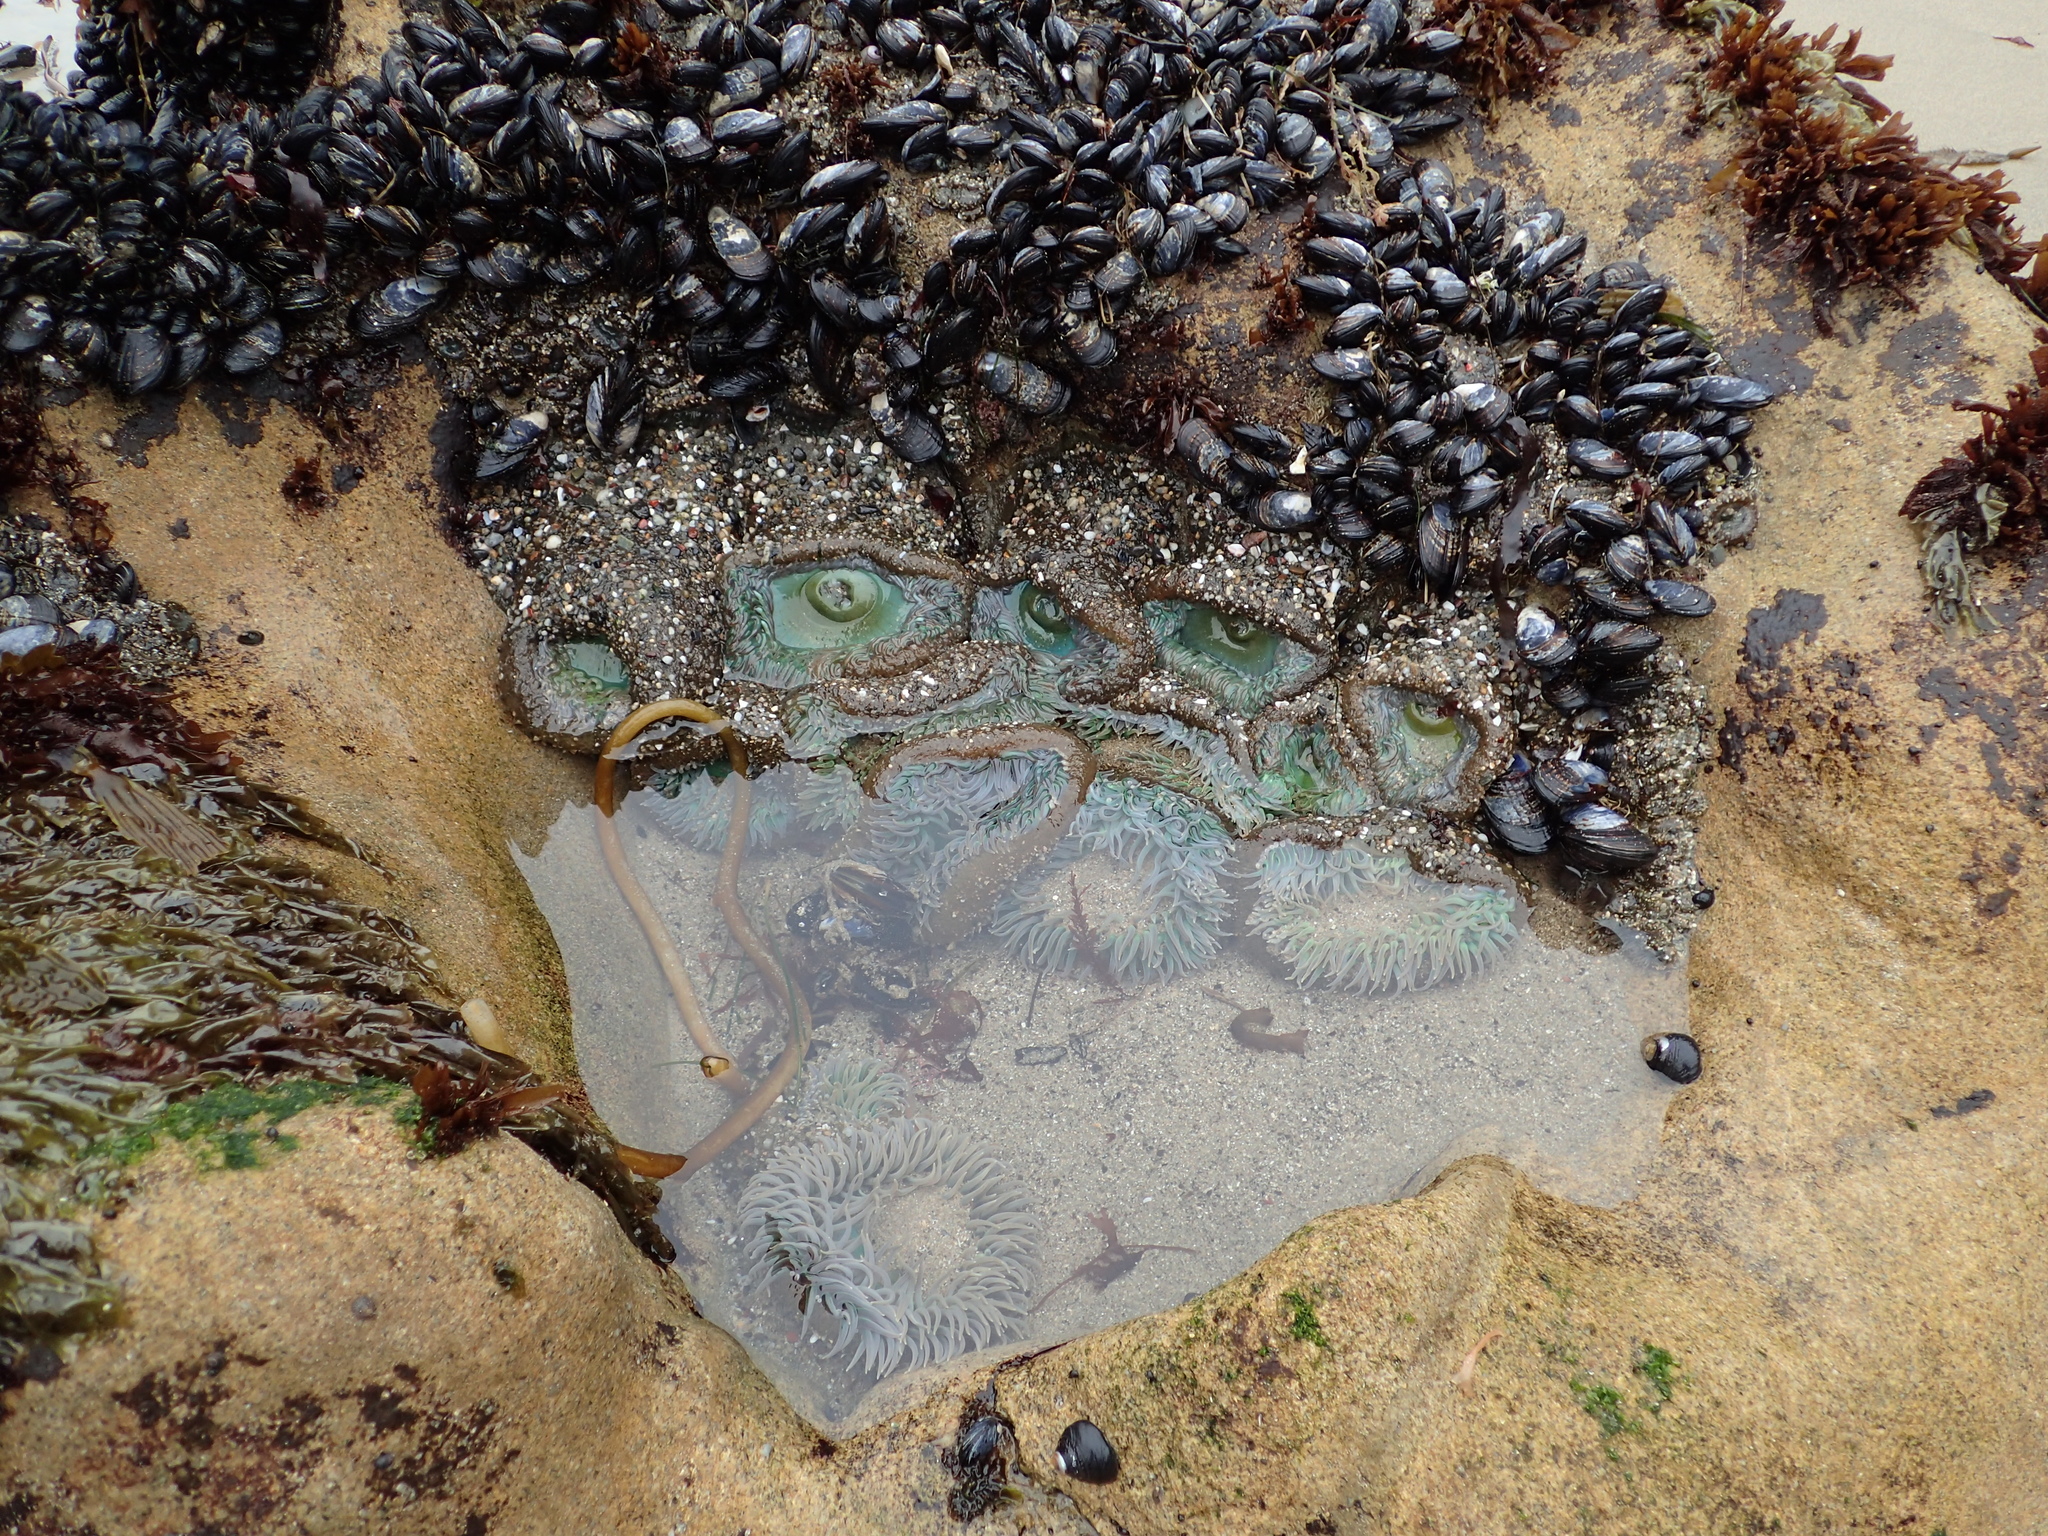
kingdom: Animalia
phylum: Cnidaria
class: Anthozoa
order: Actiniaria
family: Actiniidae
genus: Anthopleura
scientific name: Anthopleura xanthogrammica
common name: Giant green anemone
